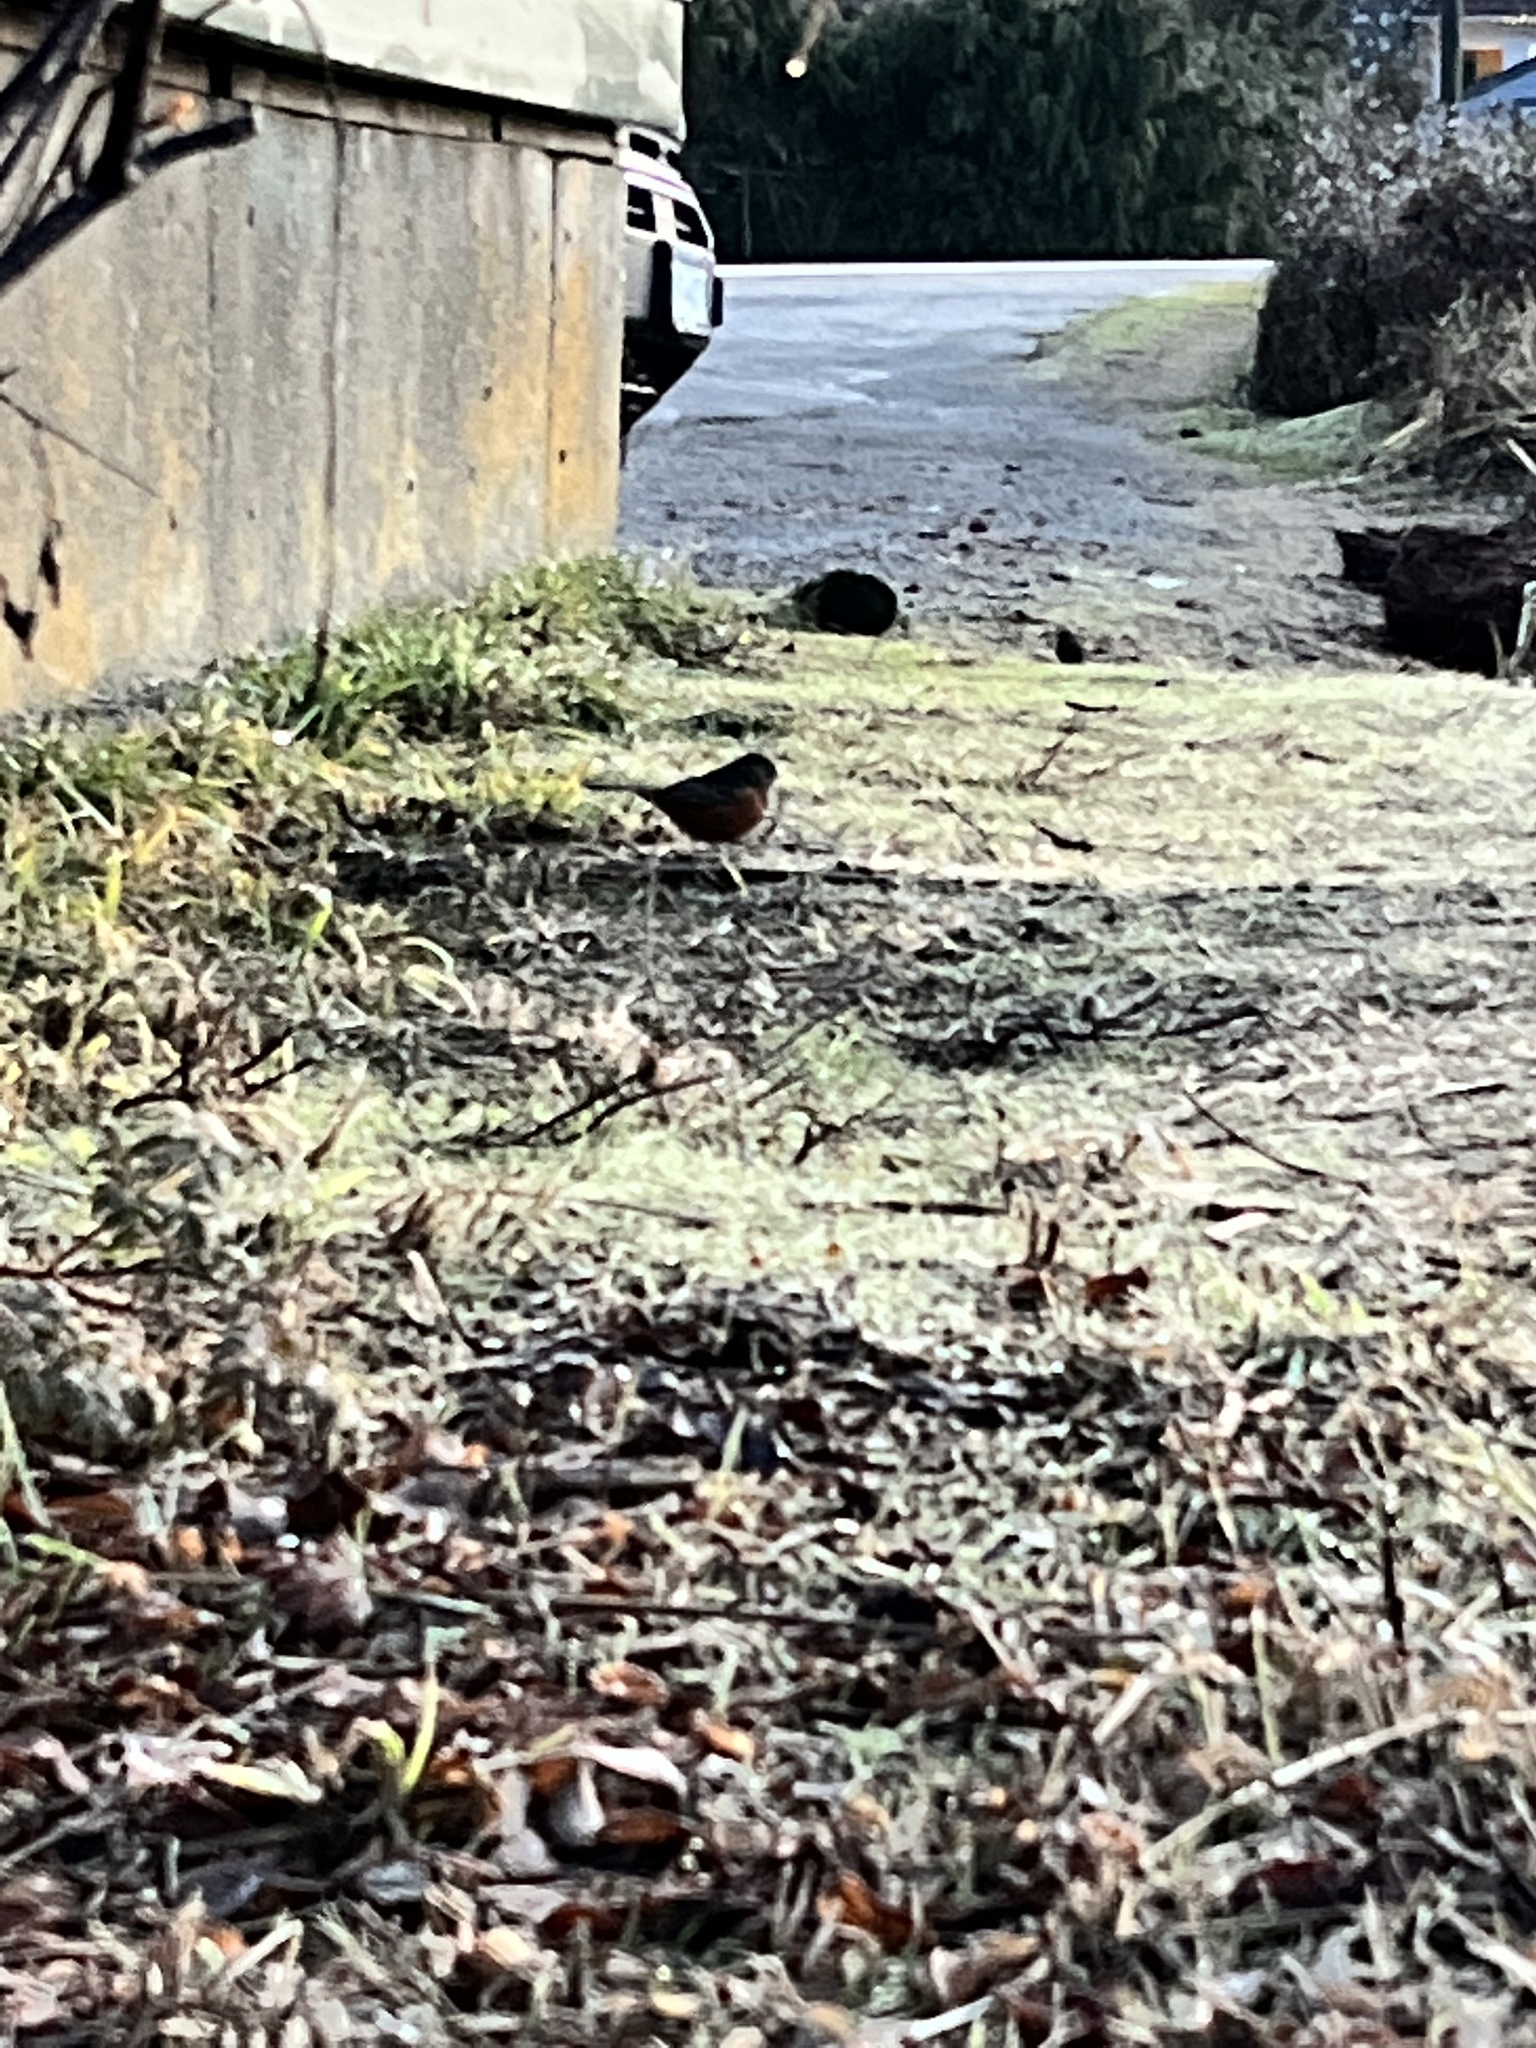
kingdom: Animalia
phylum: Chordata
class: Aves
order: Passeriformes
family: Passerellidae
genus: Pipilo
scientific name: Pipilo maculatus
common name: Spotted towhee
